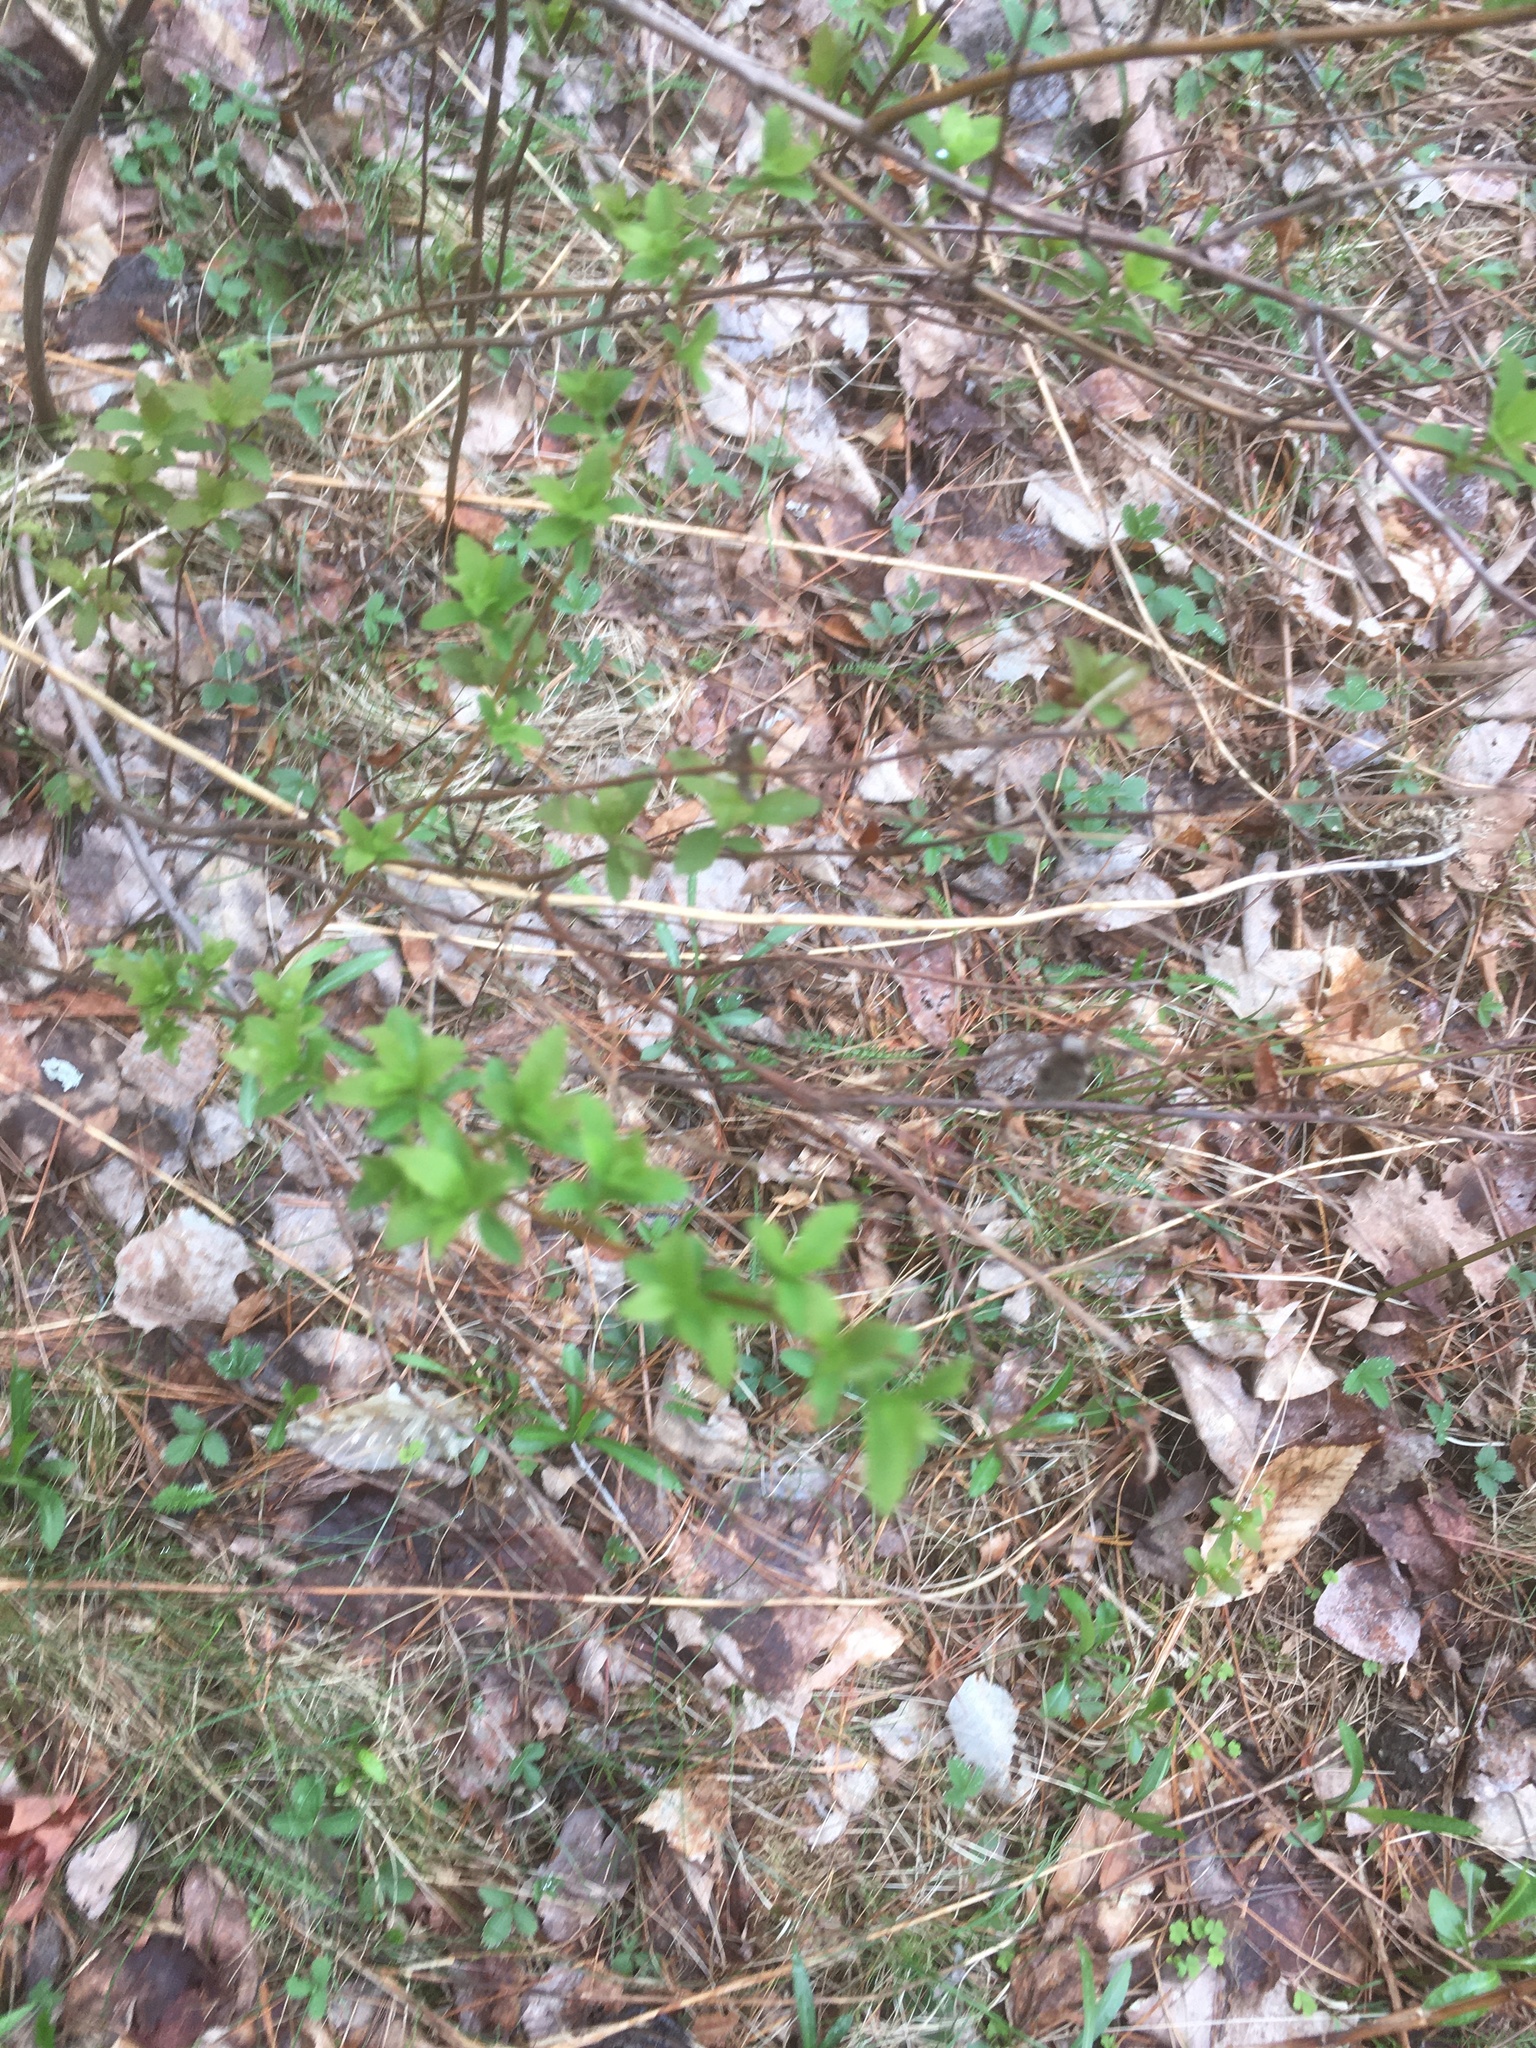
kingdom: Plantae
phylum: Tracheophyta
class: Magnoliopsida
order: Rosales
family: Rosaceae
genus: Spiraea
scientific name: Spiraea alba
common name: Pale bridewort
